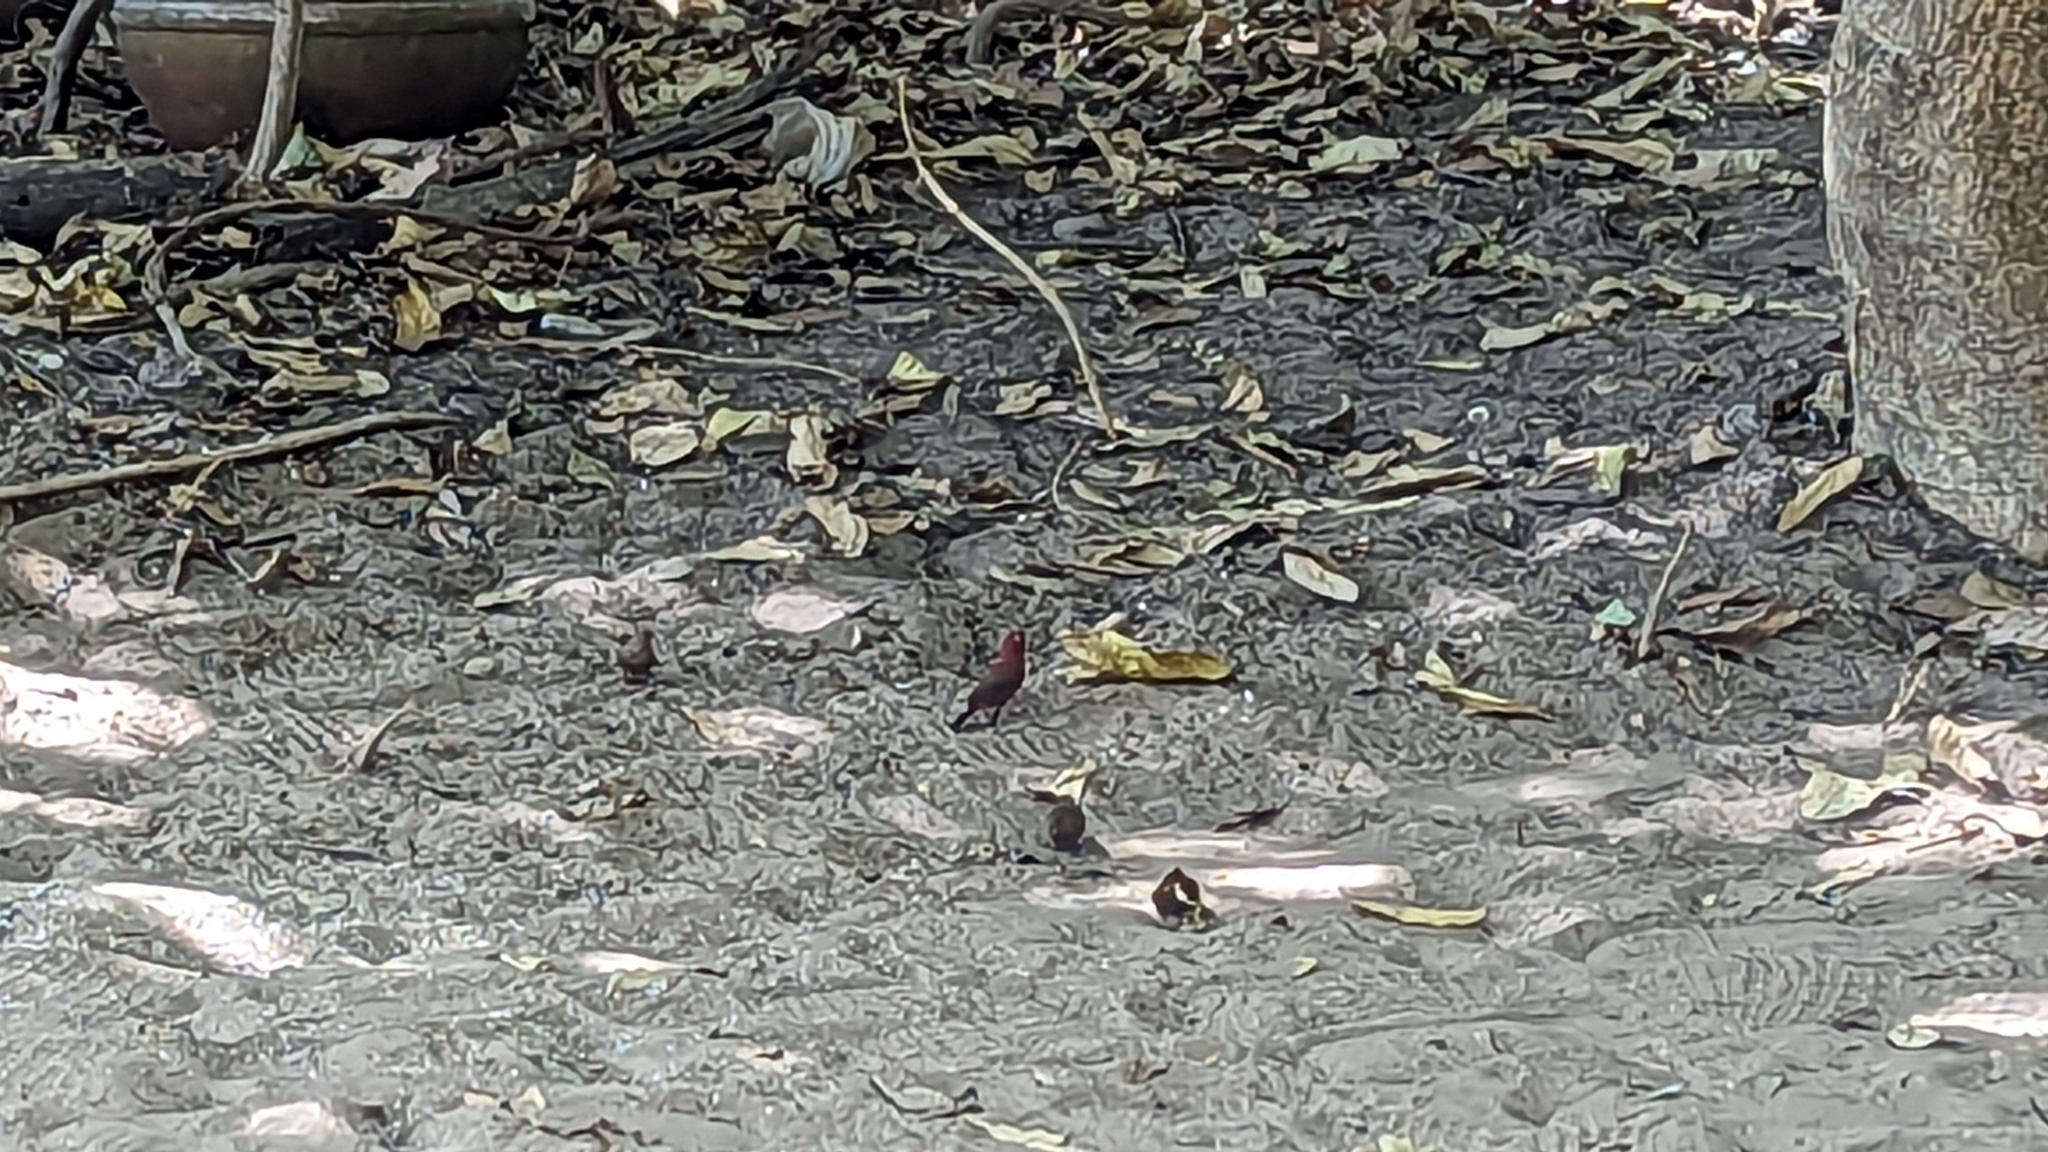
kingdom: Animalia
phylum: Chordata
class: Aves
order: Passeriformes
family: Estrildidae
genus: Lagonosticta
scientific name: Lagonosticta senegala
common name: Red-billed firefinch
